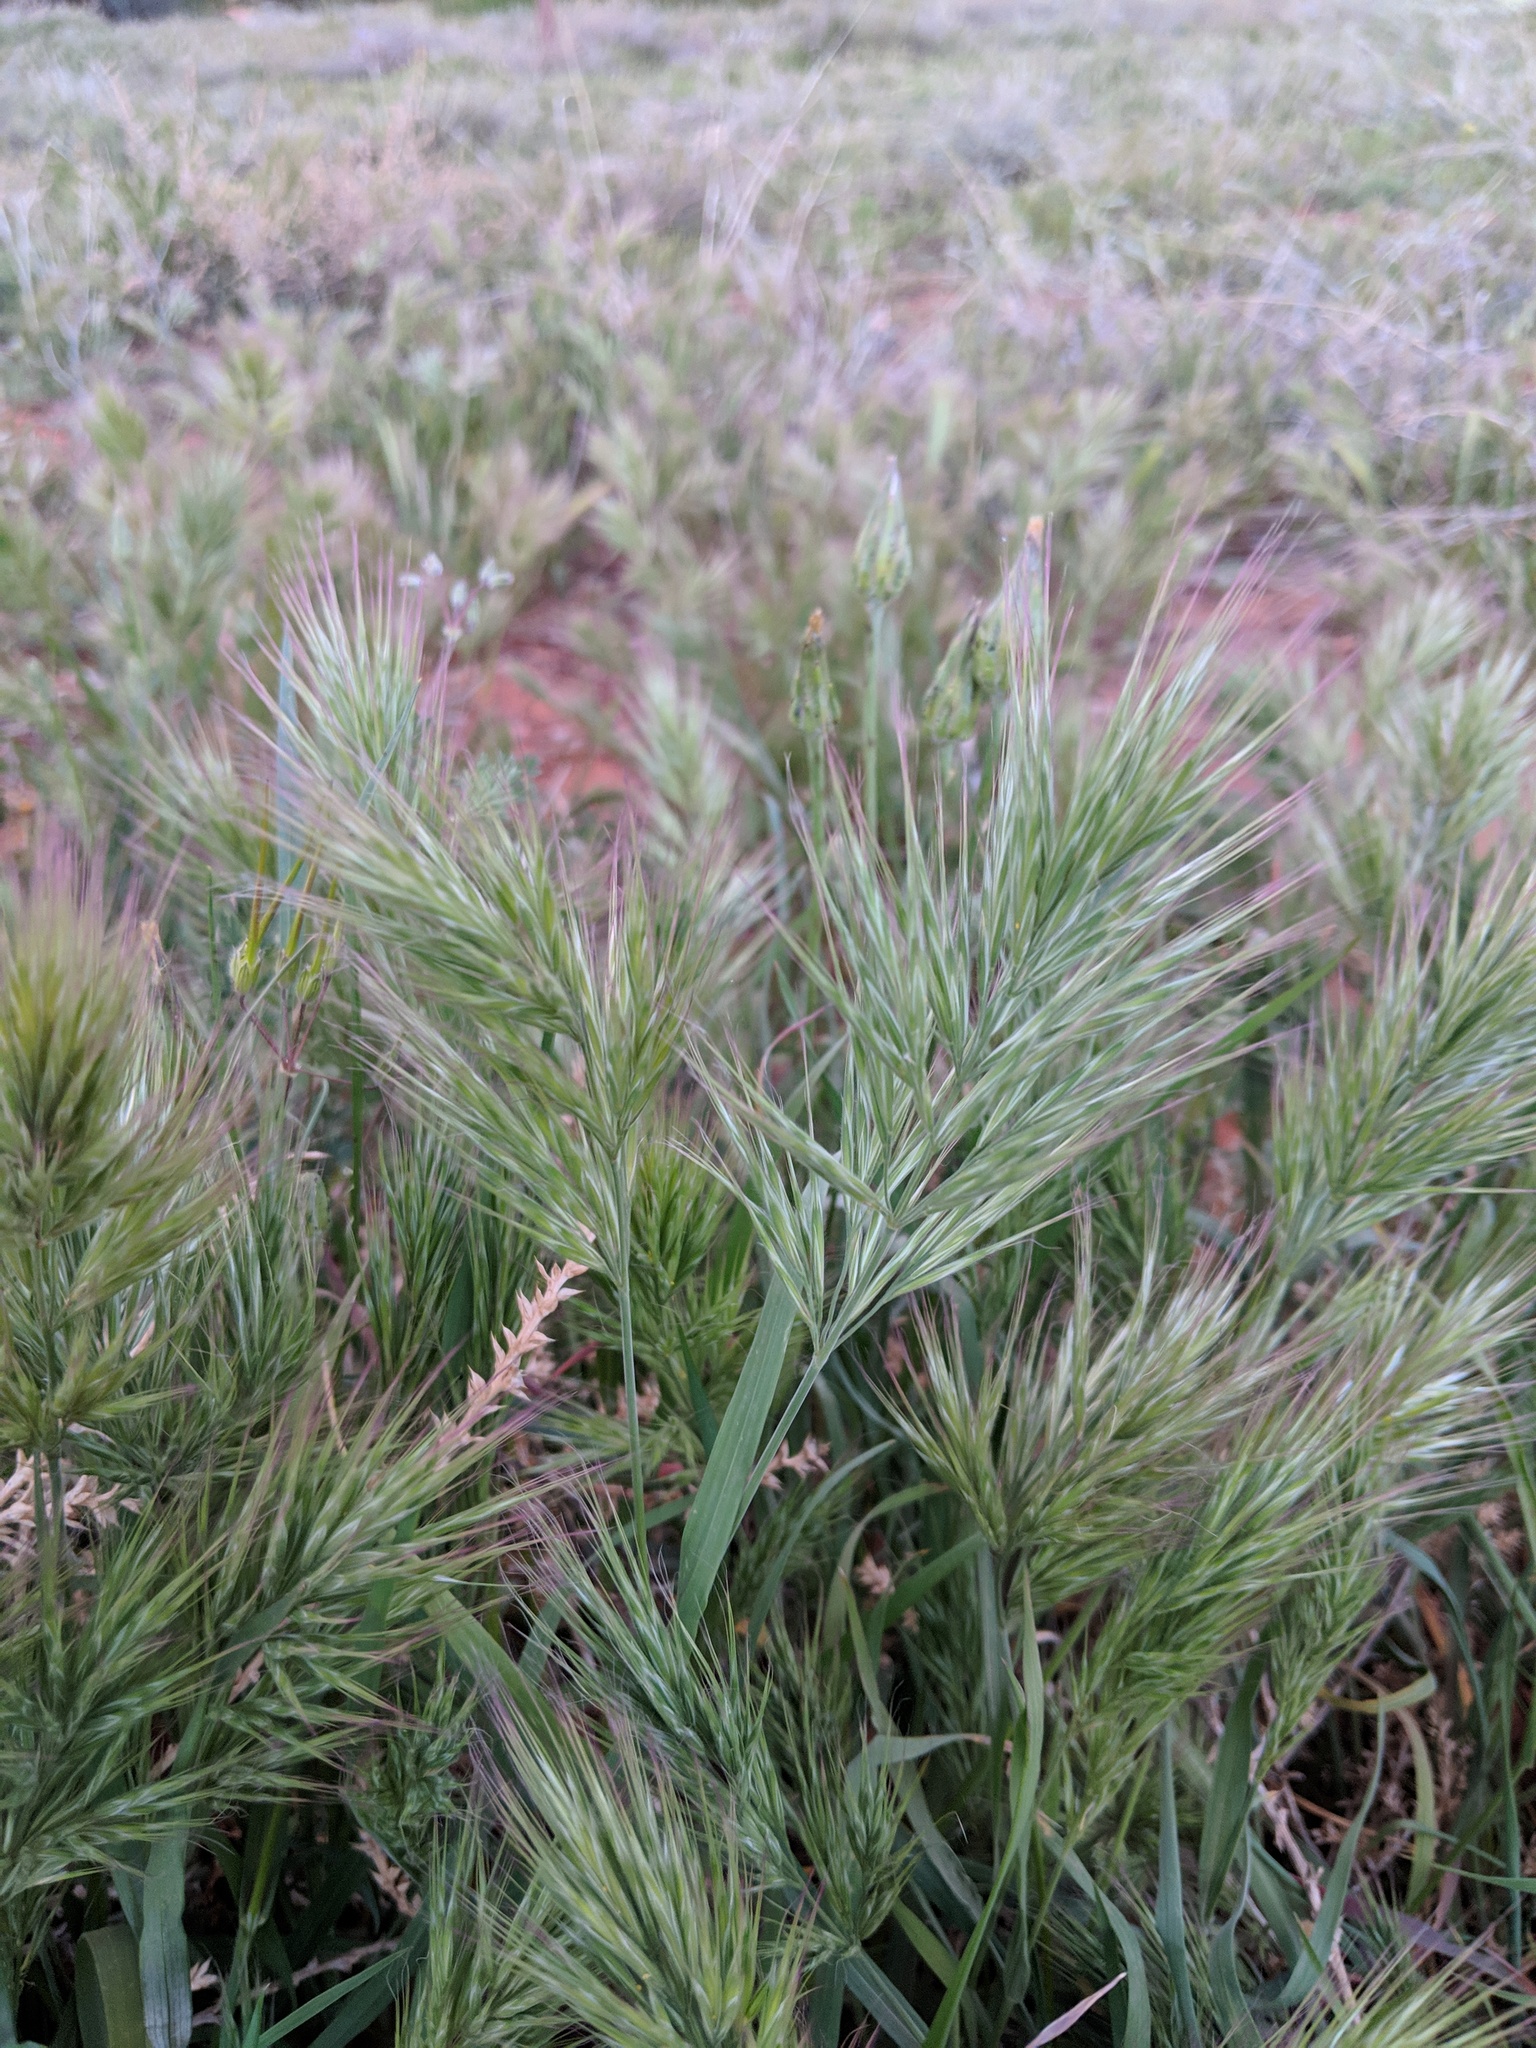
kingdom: Plantae
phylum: Tracheophyta
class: Liliopsida
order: Poales
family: Poaceae
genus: Bromus
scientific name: Bromus rubens
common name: Red brome
